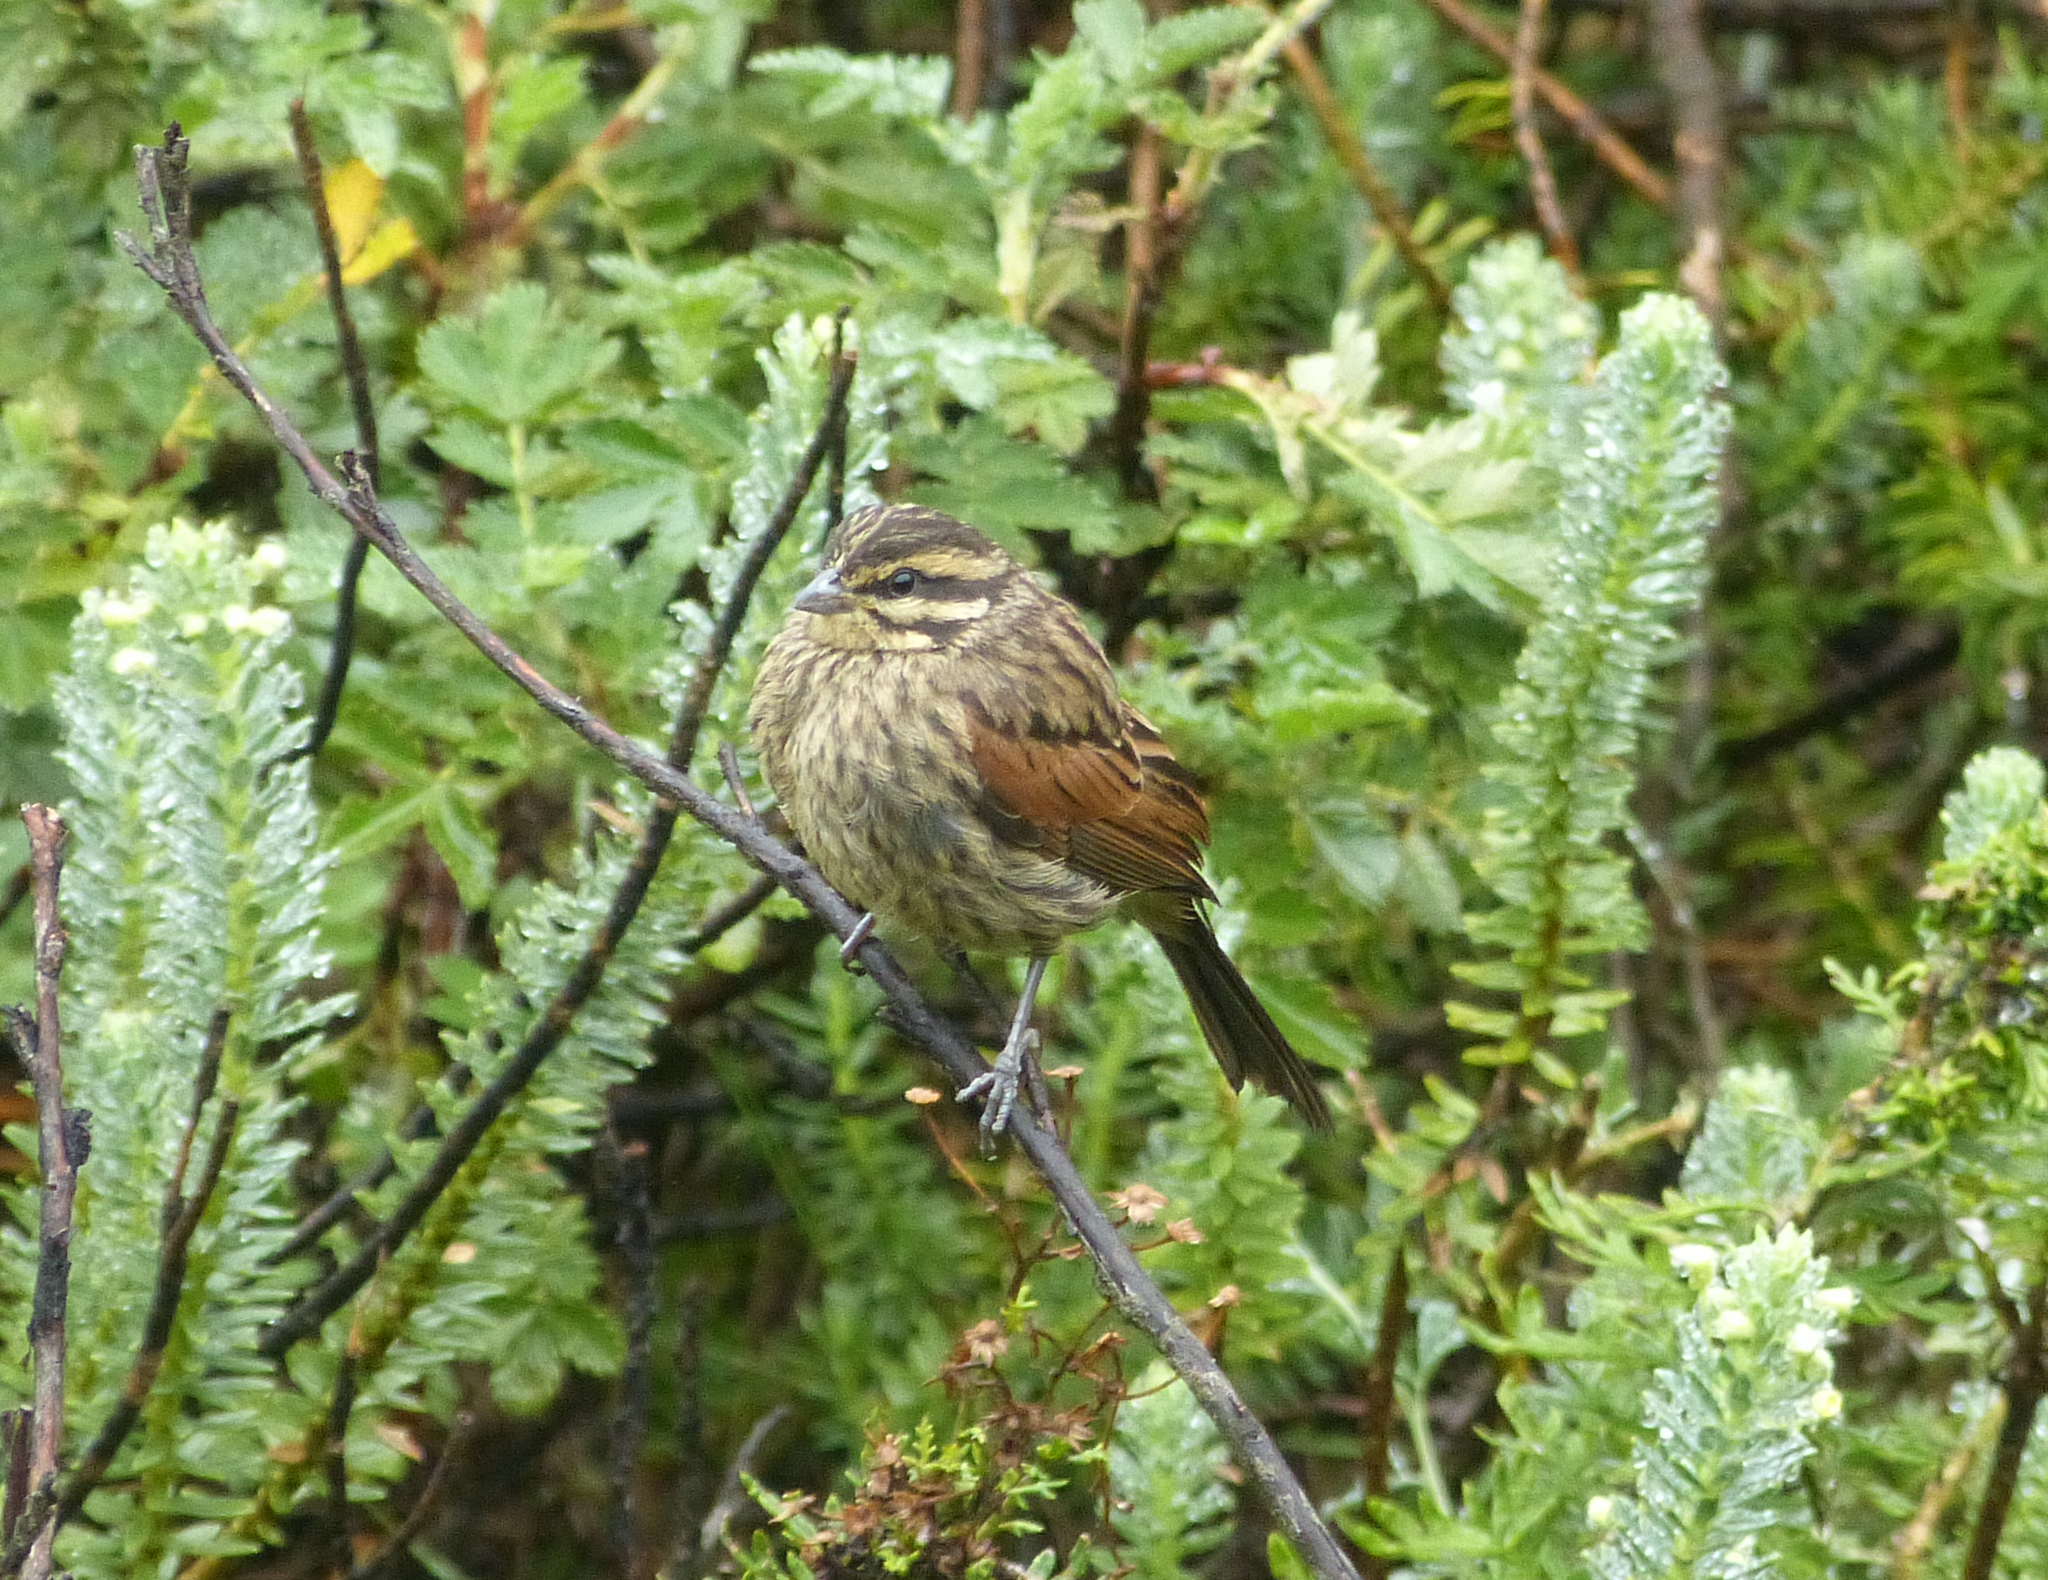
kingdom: Animalia
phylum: Chordata
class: Aves
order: Passeriformes
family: Emberizidae
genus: Emberiza
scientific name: Emberiza capensis
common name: Cape bunting
